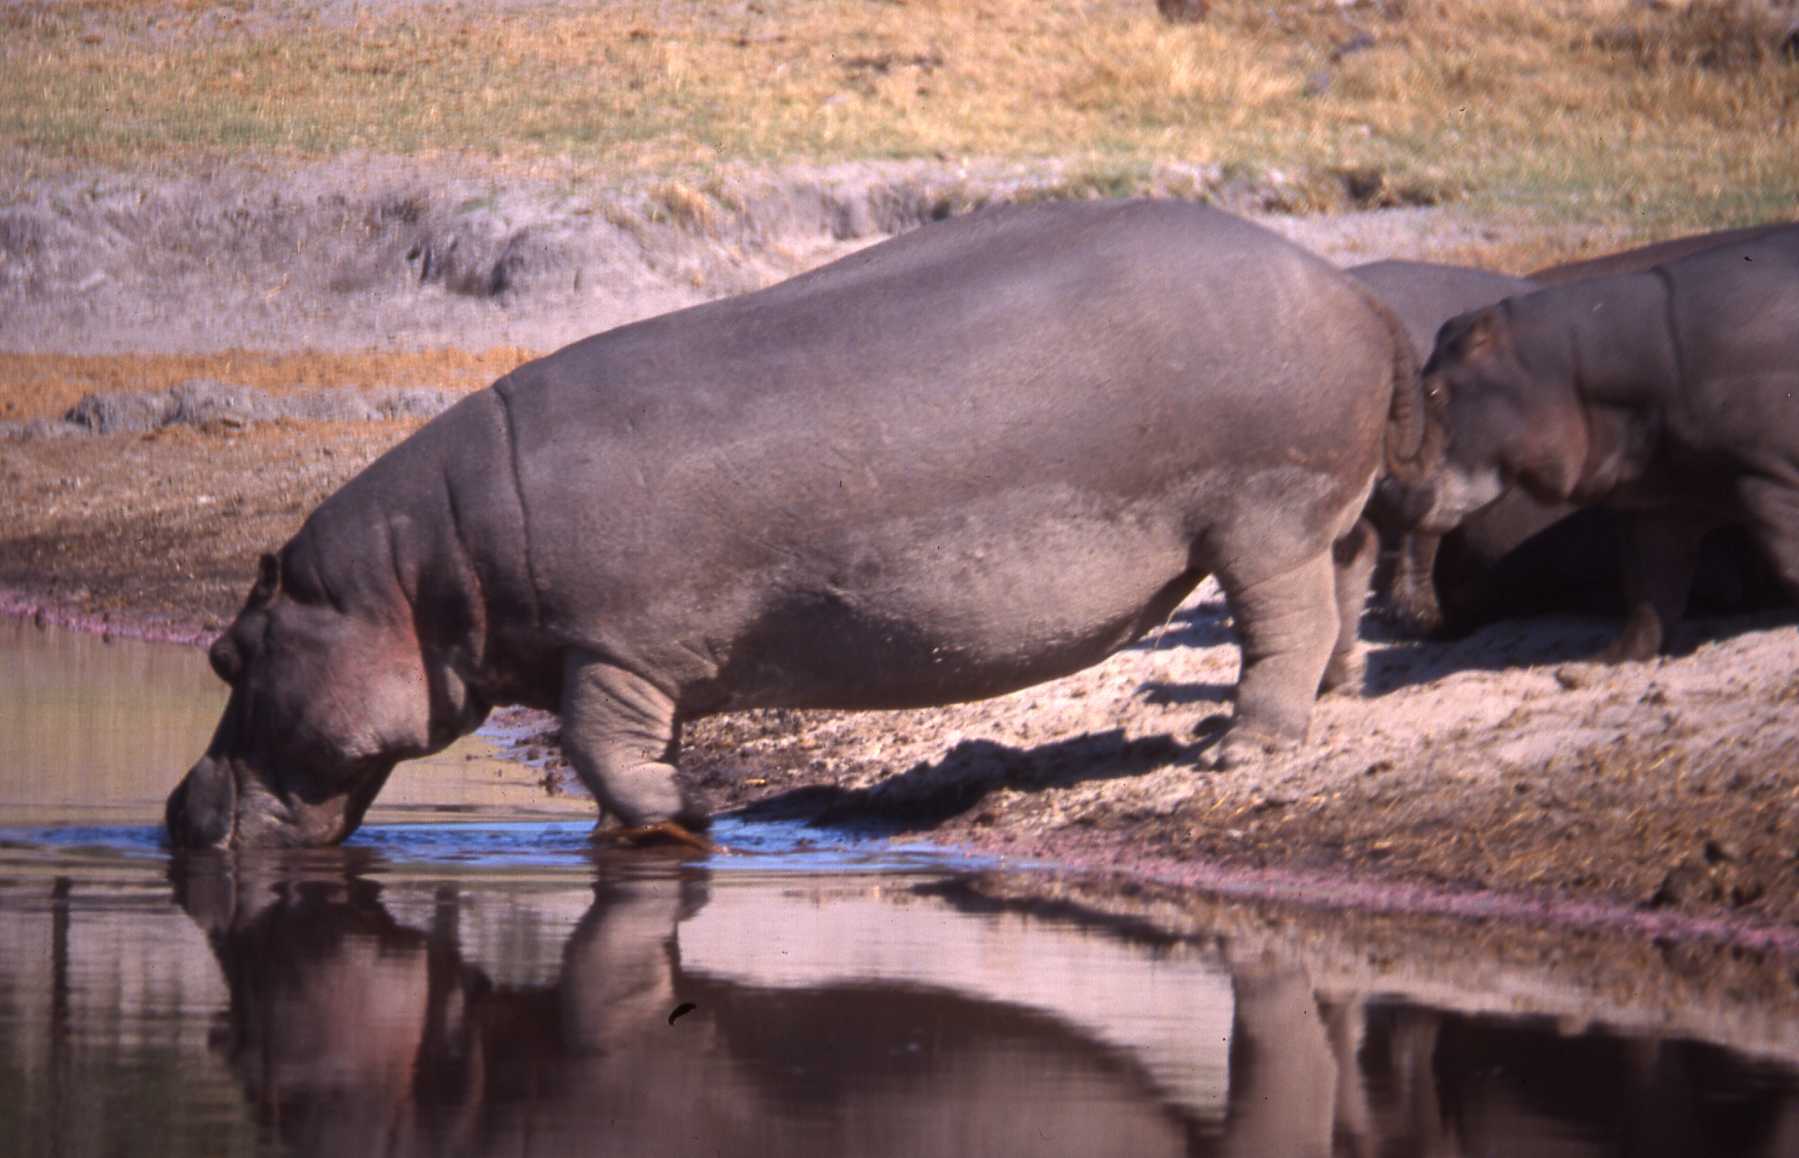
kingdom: Animalia
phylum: Chordata
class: Mammalia
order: Artiodactyla
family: Hippopotamidae
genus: Hippopotamus
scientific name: Hippopotamus amphibius
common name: Common hippopotamus
